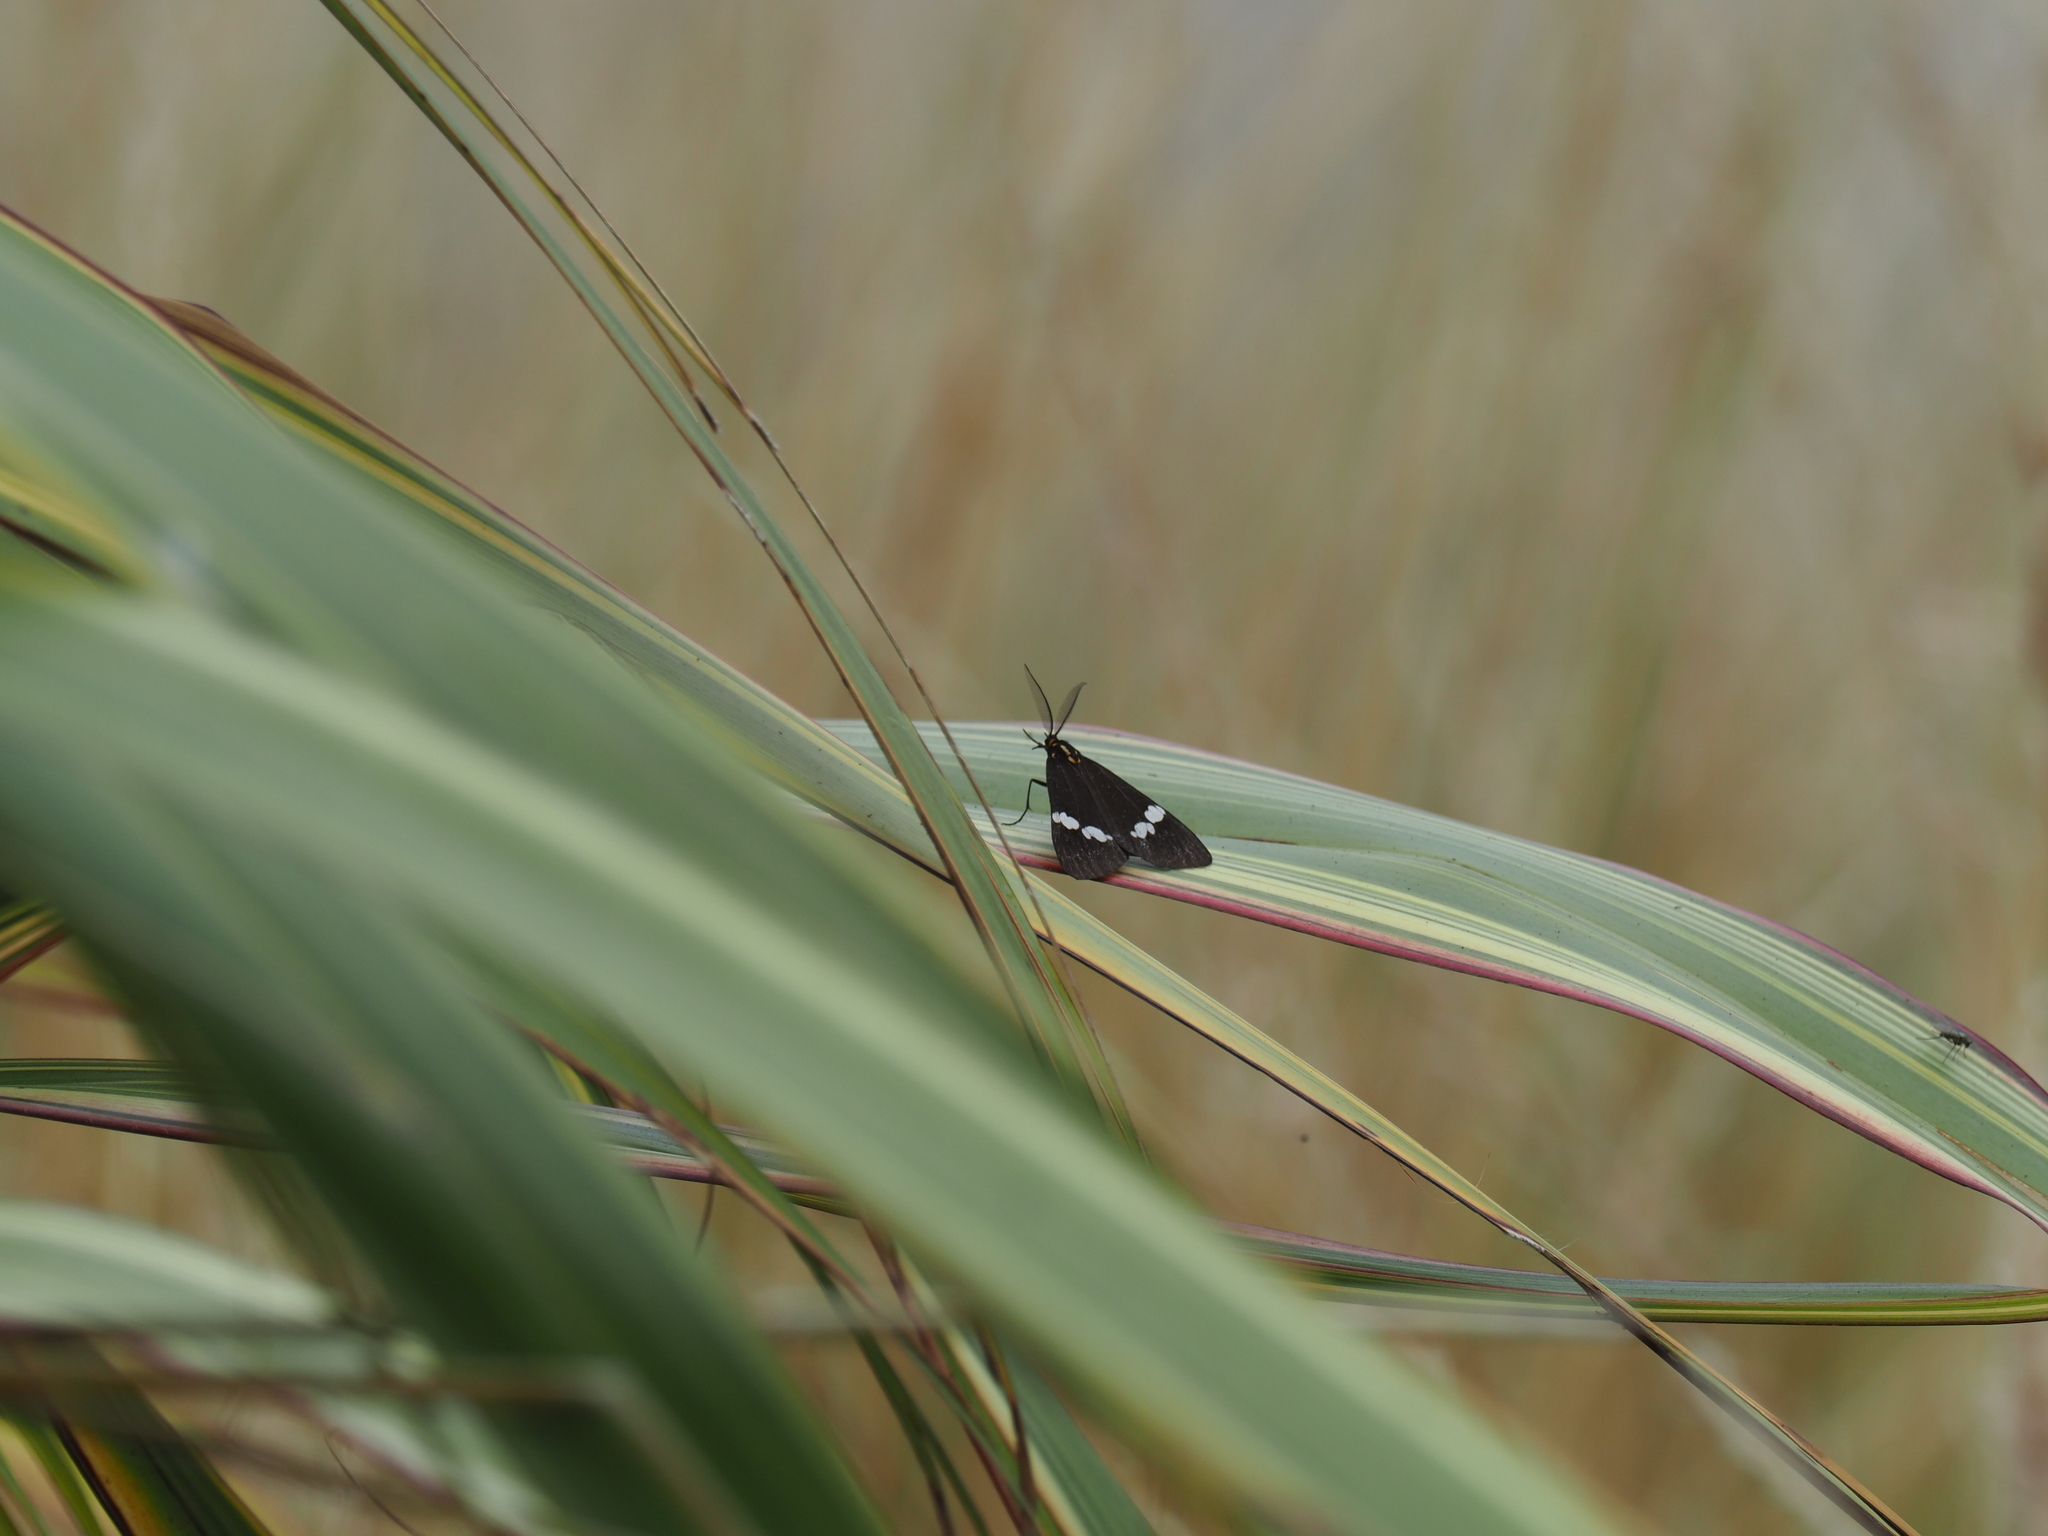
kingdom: Animalia
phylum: Arthropoda
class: Insecta
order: Lepidoptera
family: Erebidae
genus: Nyctemera
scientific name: Nyctemera annulatum
